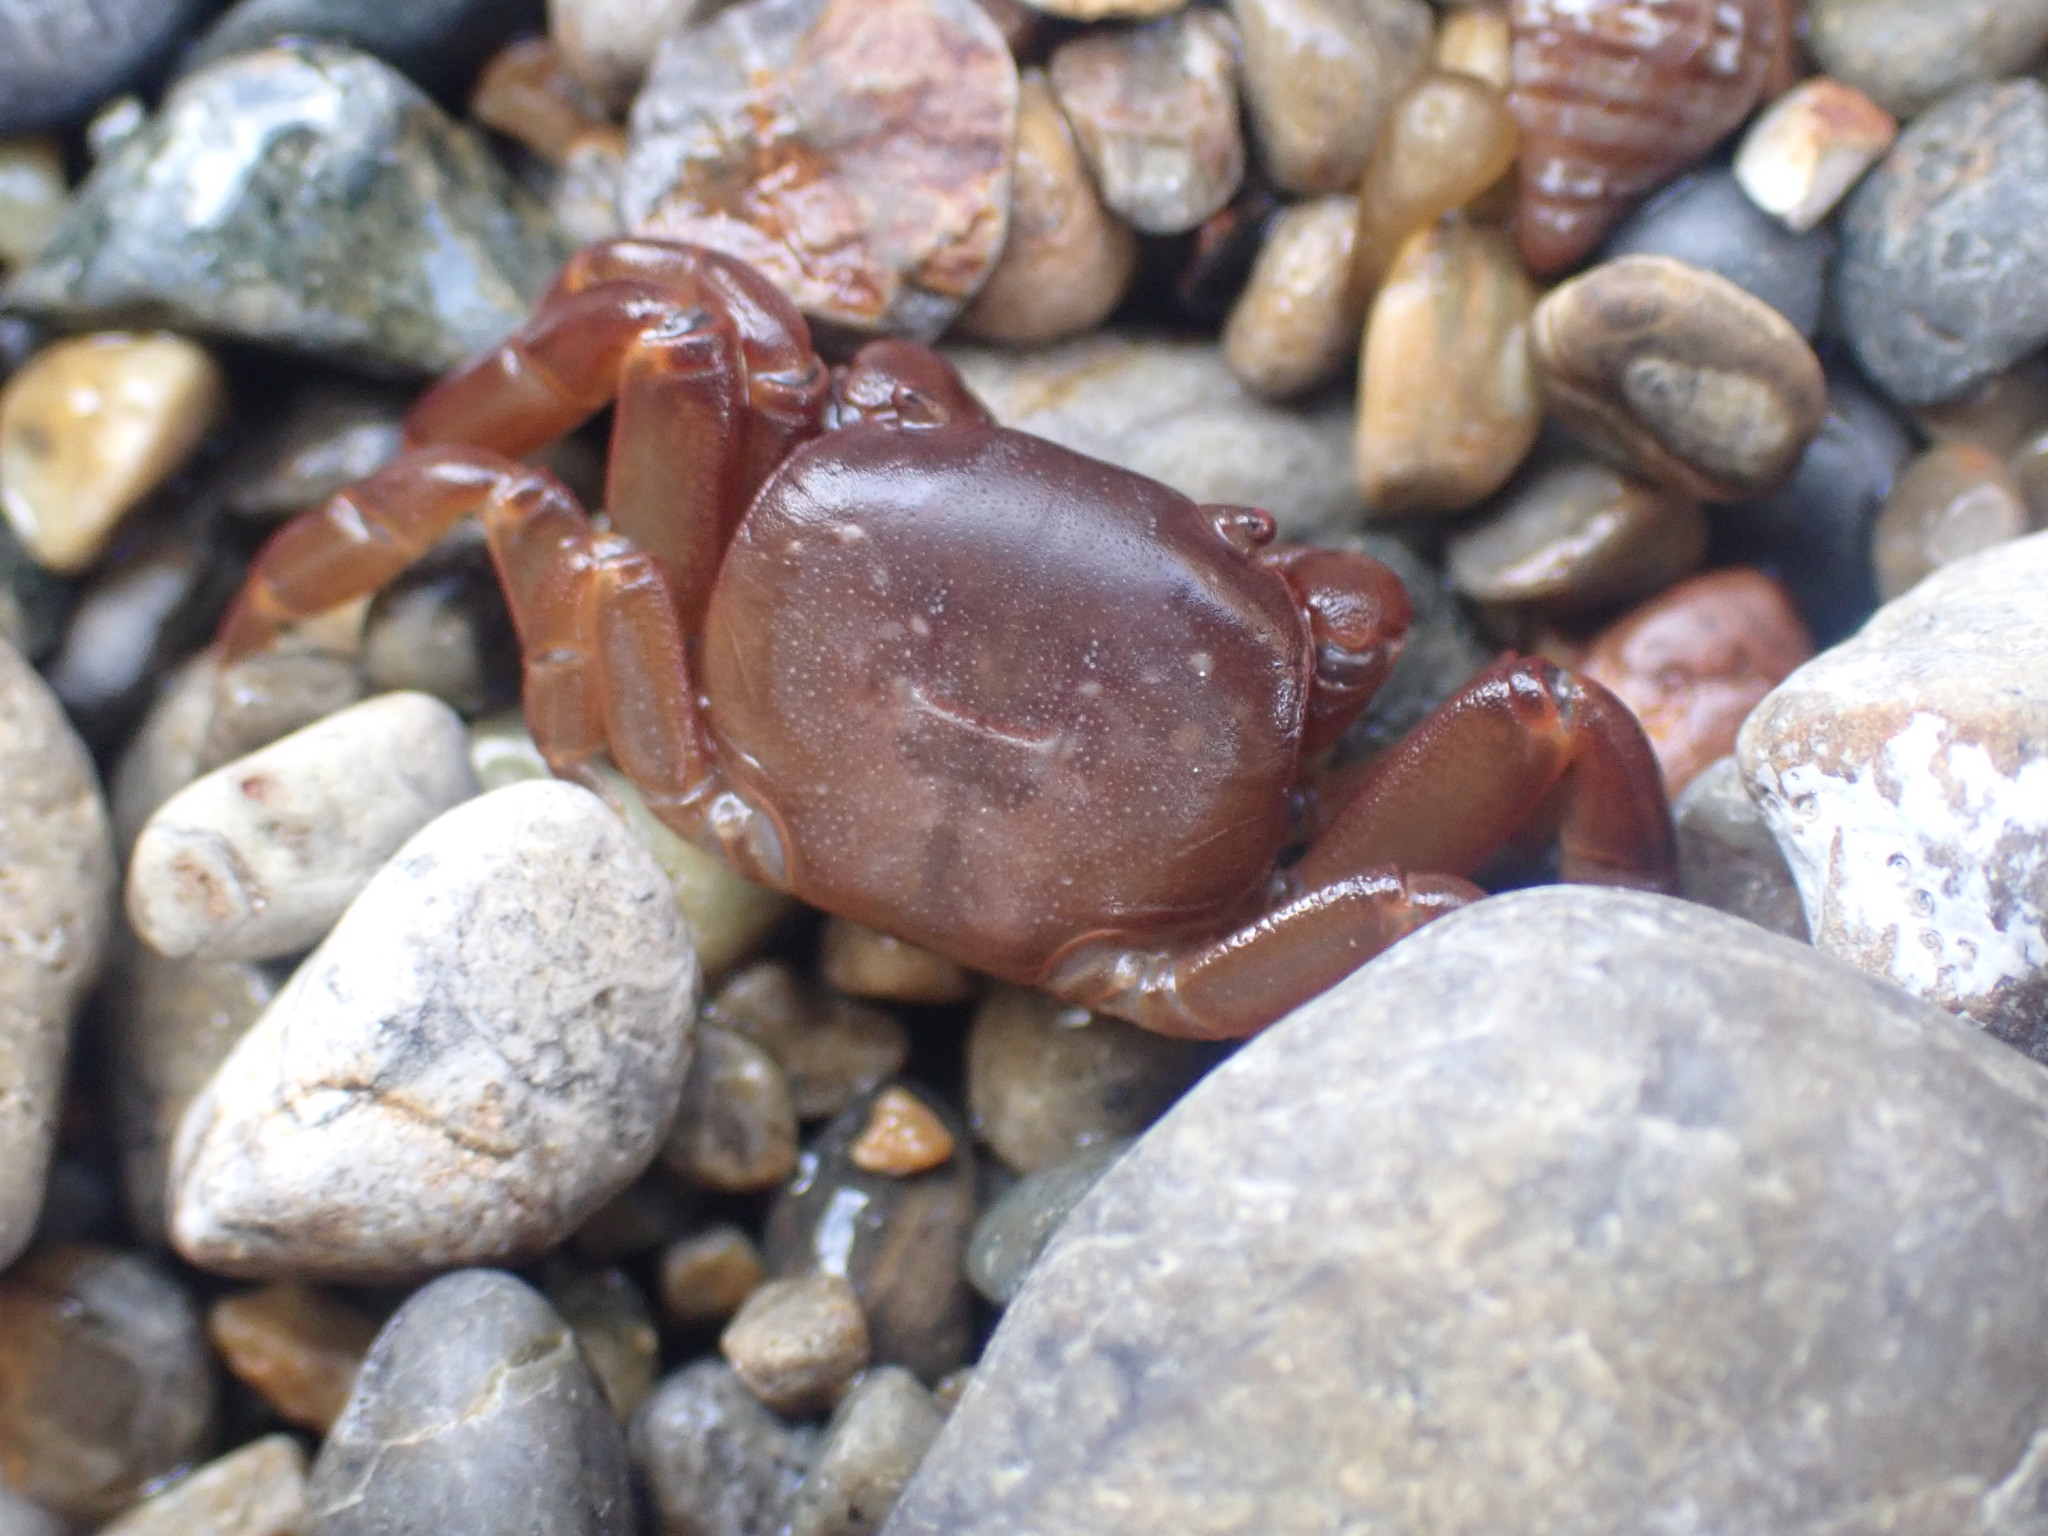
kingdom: Animalia
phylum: Arthropoda
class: Malacostraca
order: Decapoda
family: Varunidae
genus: Cyclograpsus
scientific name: Cyclograpsus insularum
